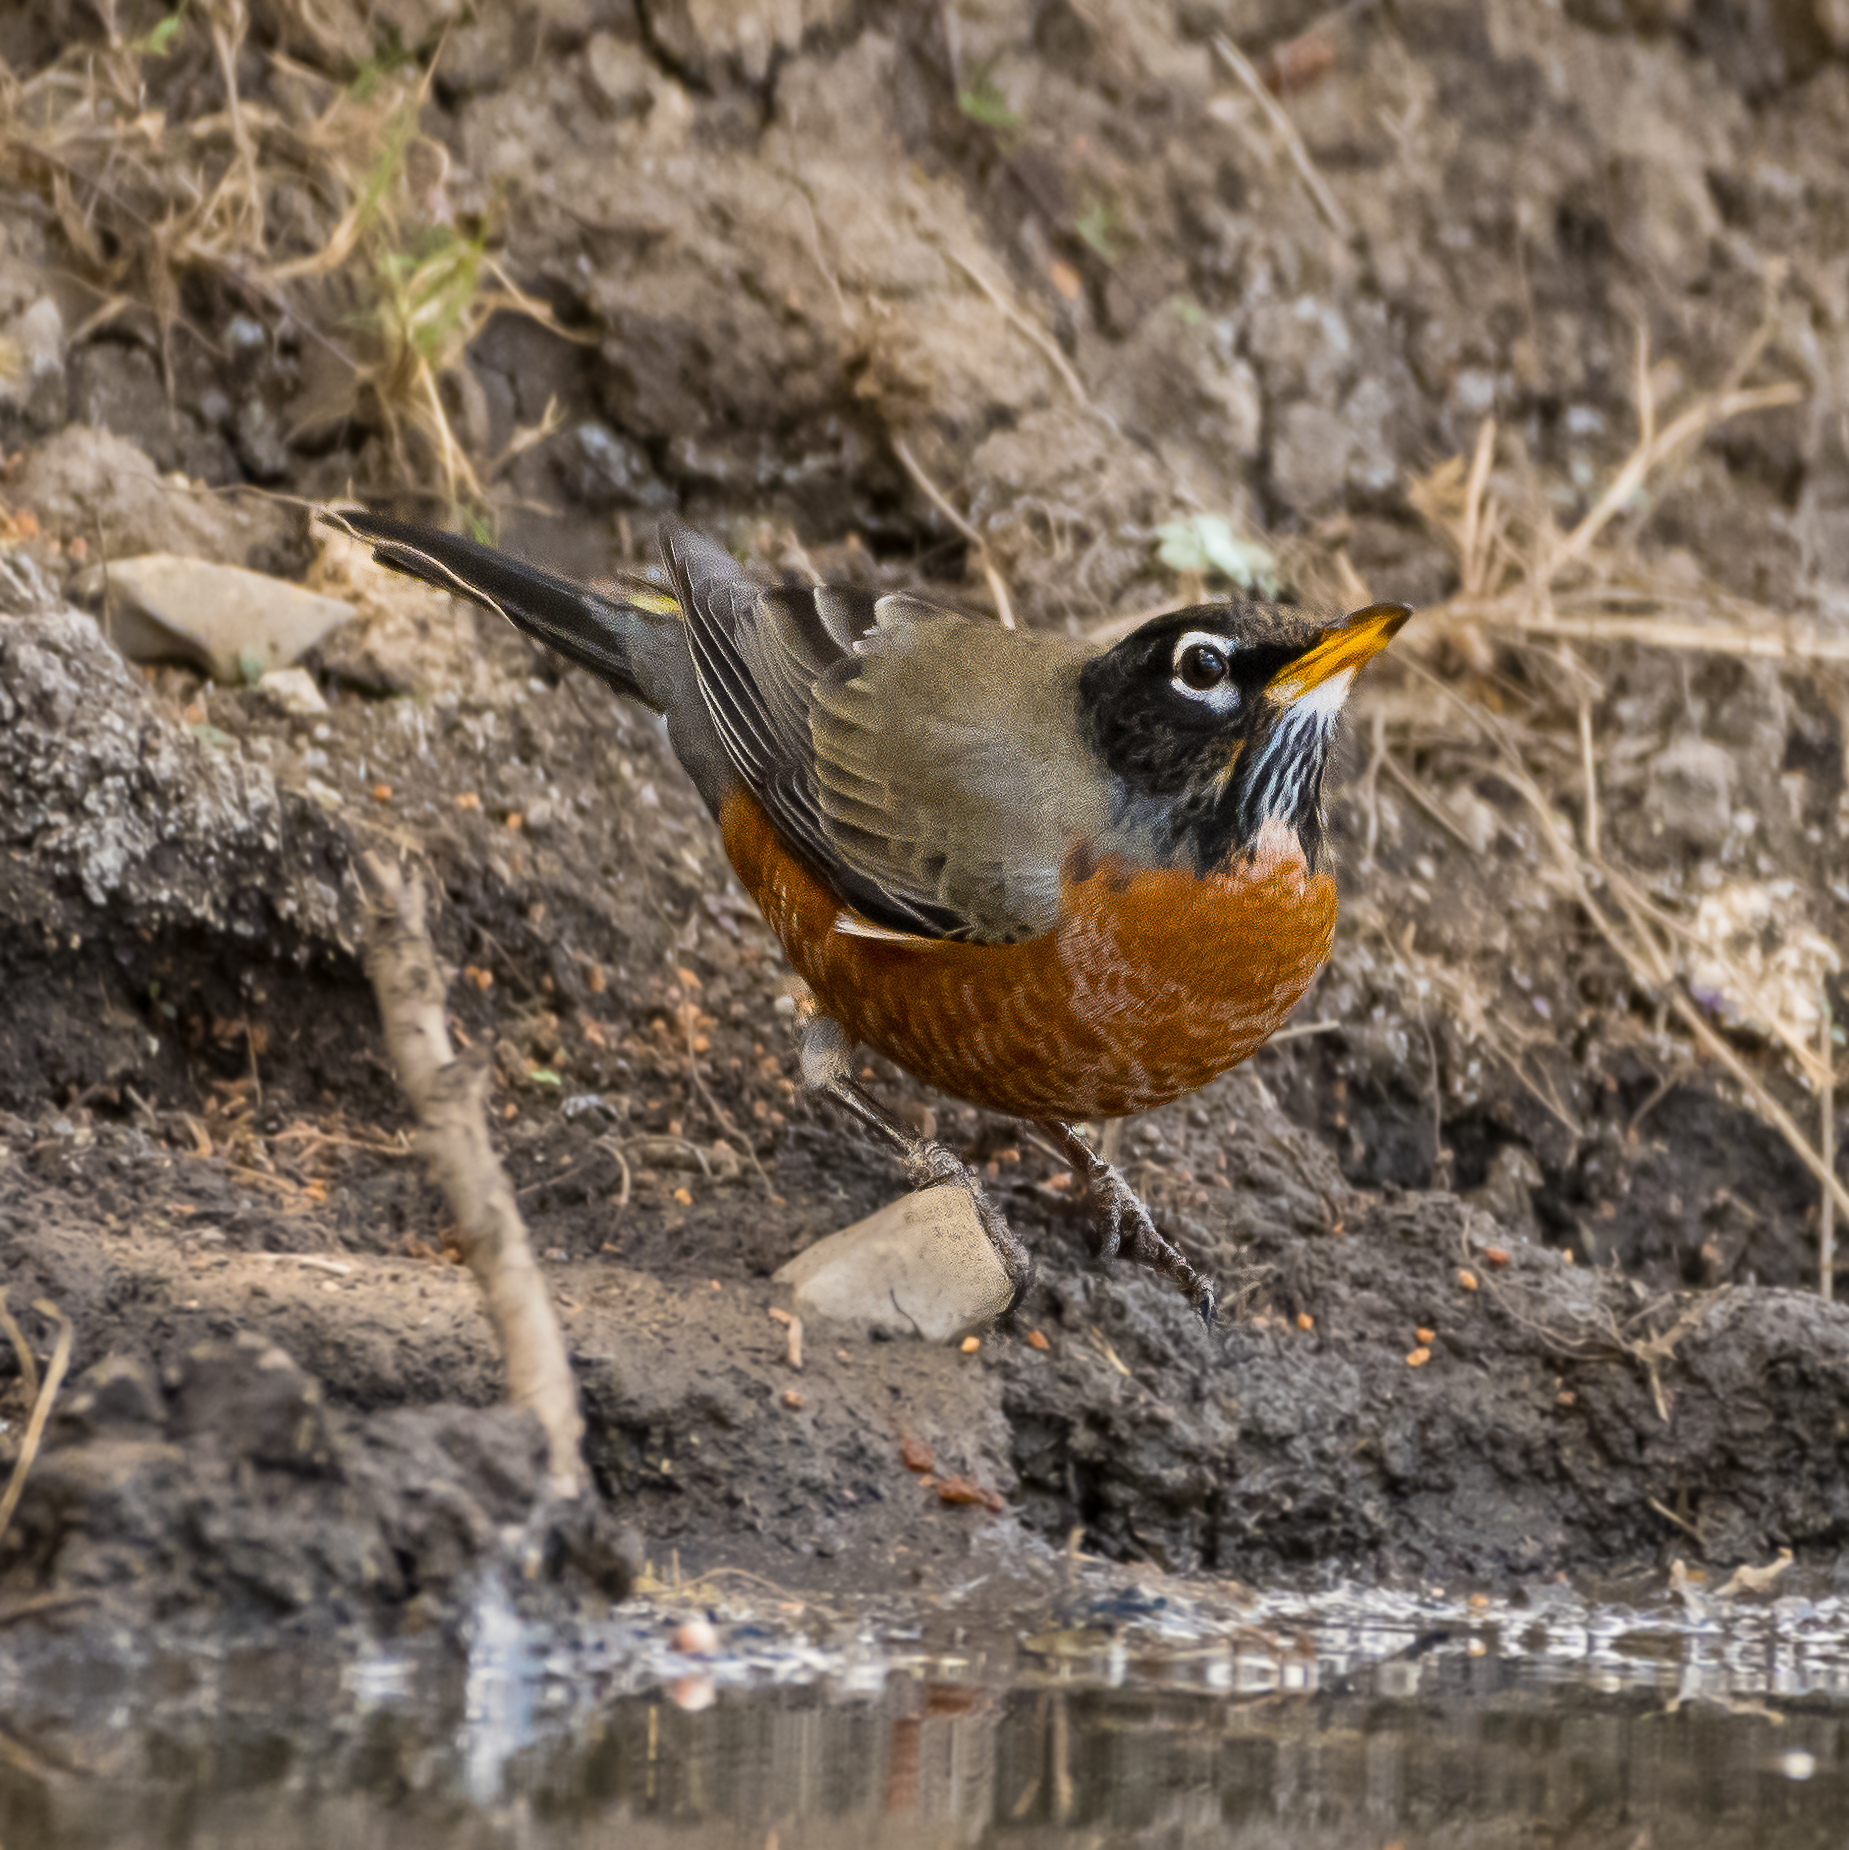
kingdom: Animalia
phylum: Chordata
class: Aves
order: Passeriformes
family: Turdidae
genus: Turdus
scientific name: Turdus migratorius
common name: American robin
